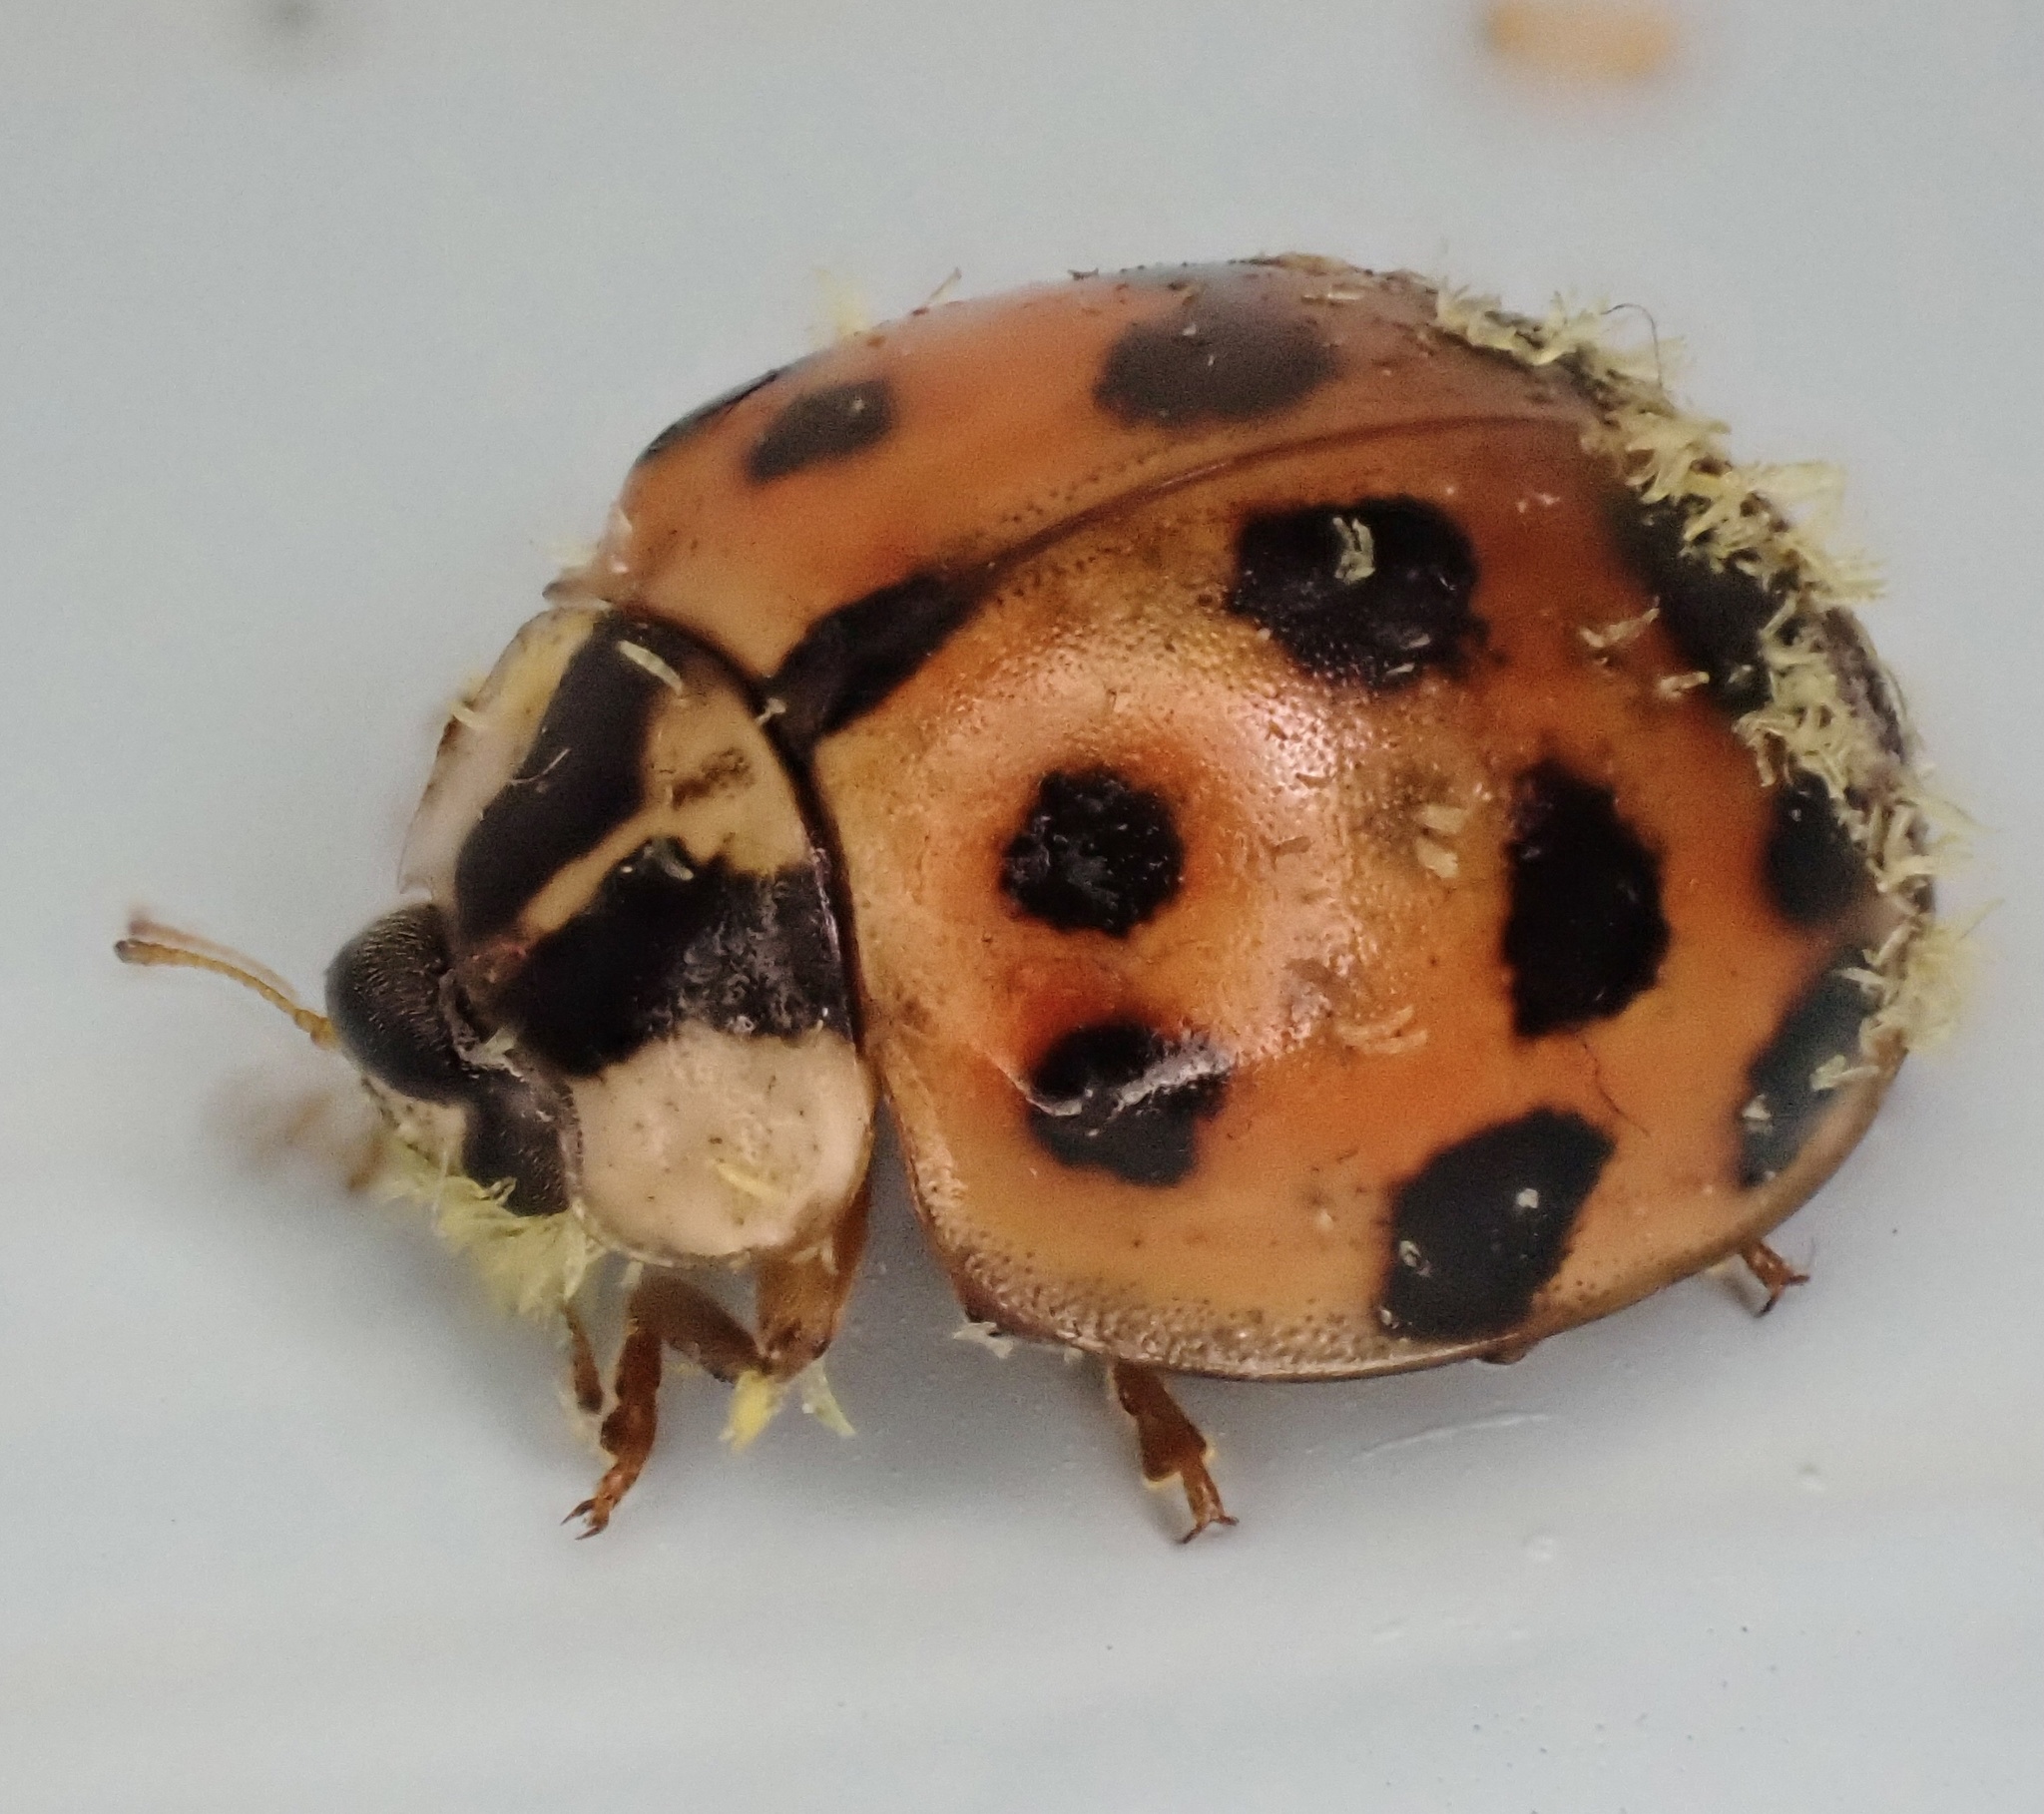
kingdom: Fungi
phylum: Ascomycota
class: Laboulbeniomycetes
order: Laboulbeniales
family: Laboulbeniaceae
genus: Hesperomyces
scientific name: Hesperomyces harmoniae
